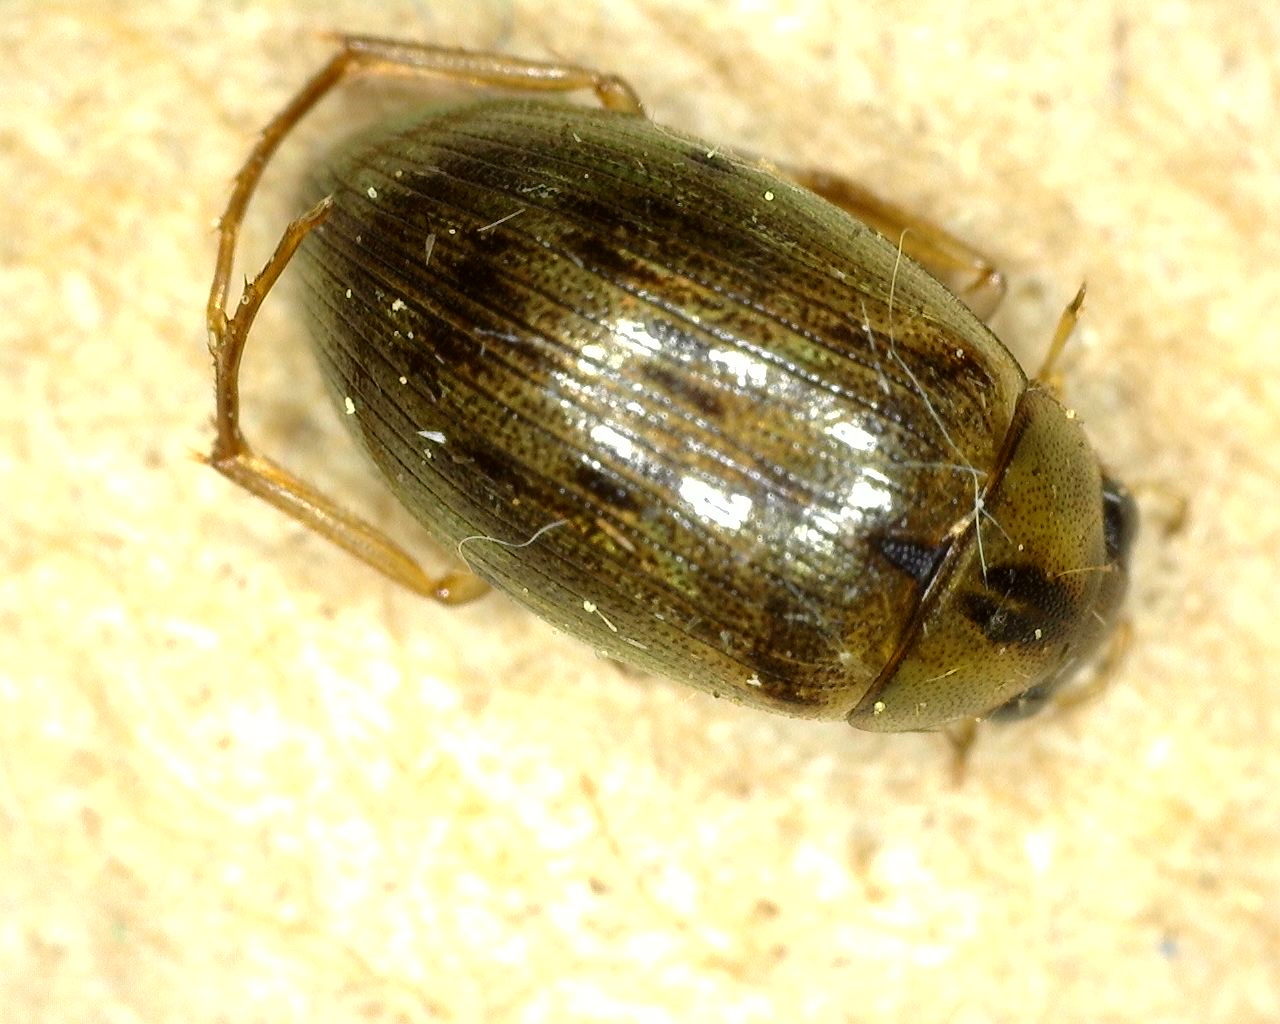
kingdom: Animalia
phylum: Arthropoda
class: Insecta
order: Coleoptera
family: Hydrophilidae
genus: Berosus
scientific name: Berosus
